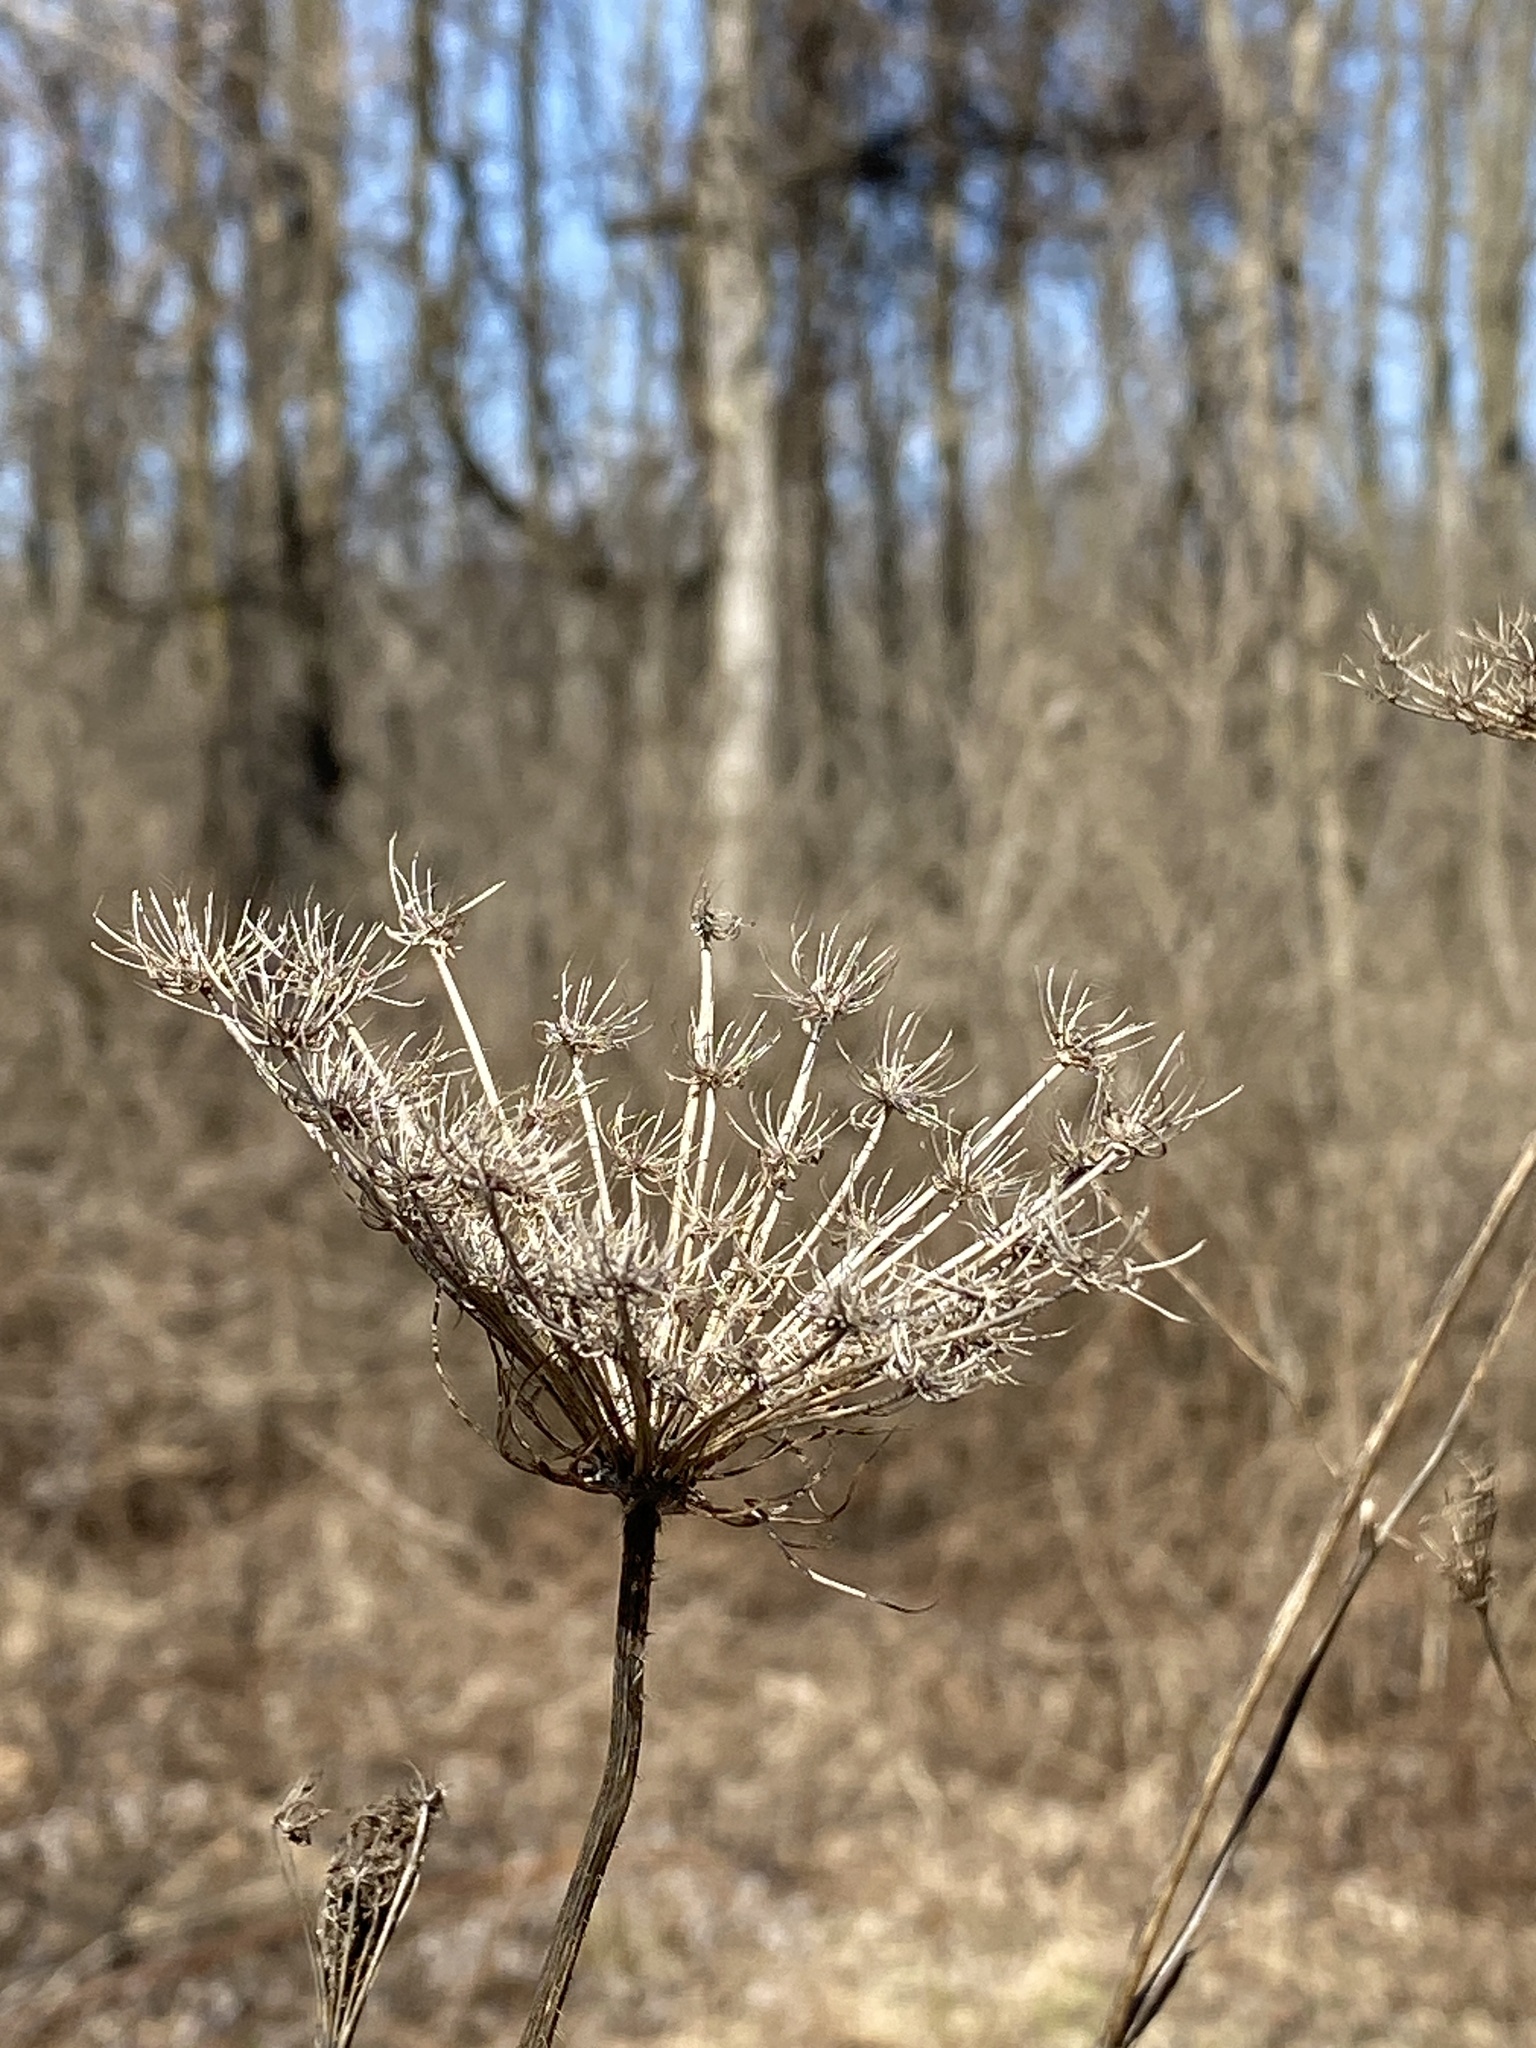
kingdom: Plantae
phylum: Tracheophyta
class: Magnoliopsida
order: Apiales
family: Apiaceae
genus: Daucus
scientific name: Daucus carota
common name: Wild carrot
